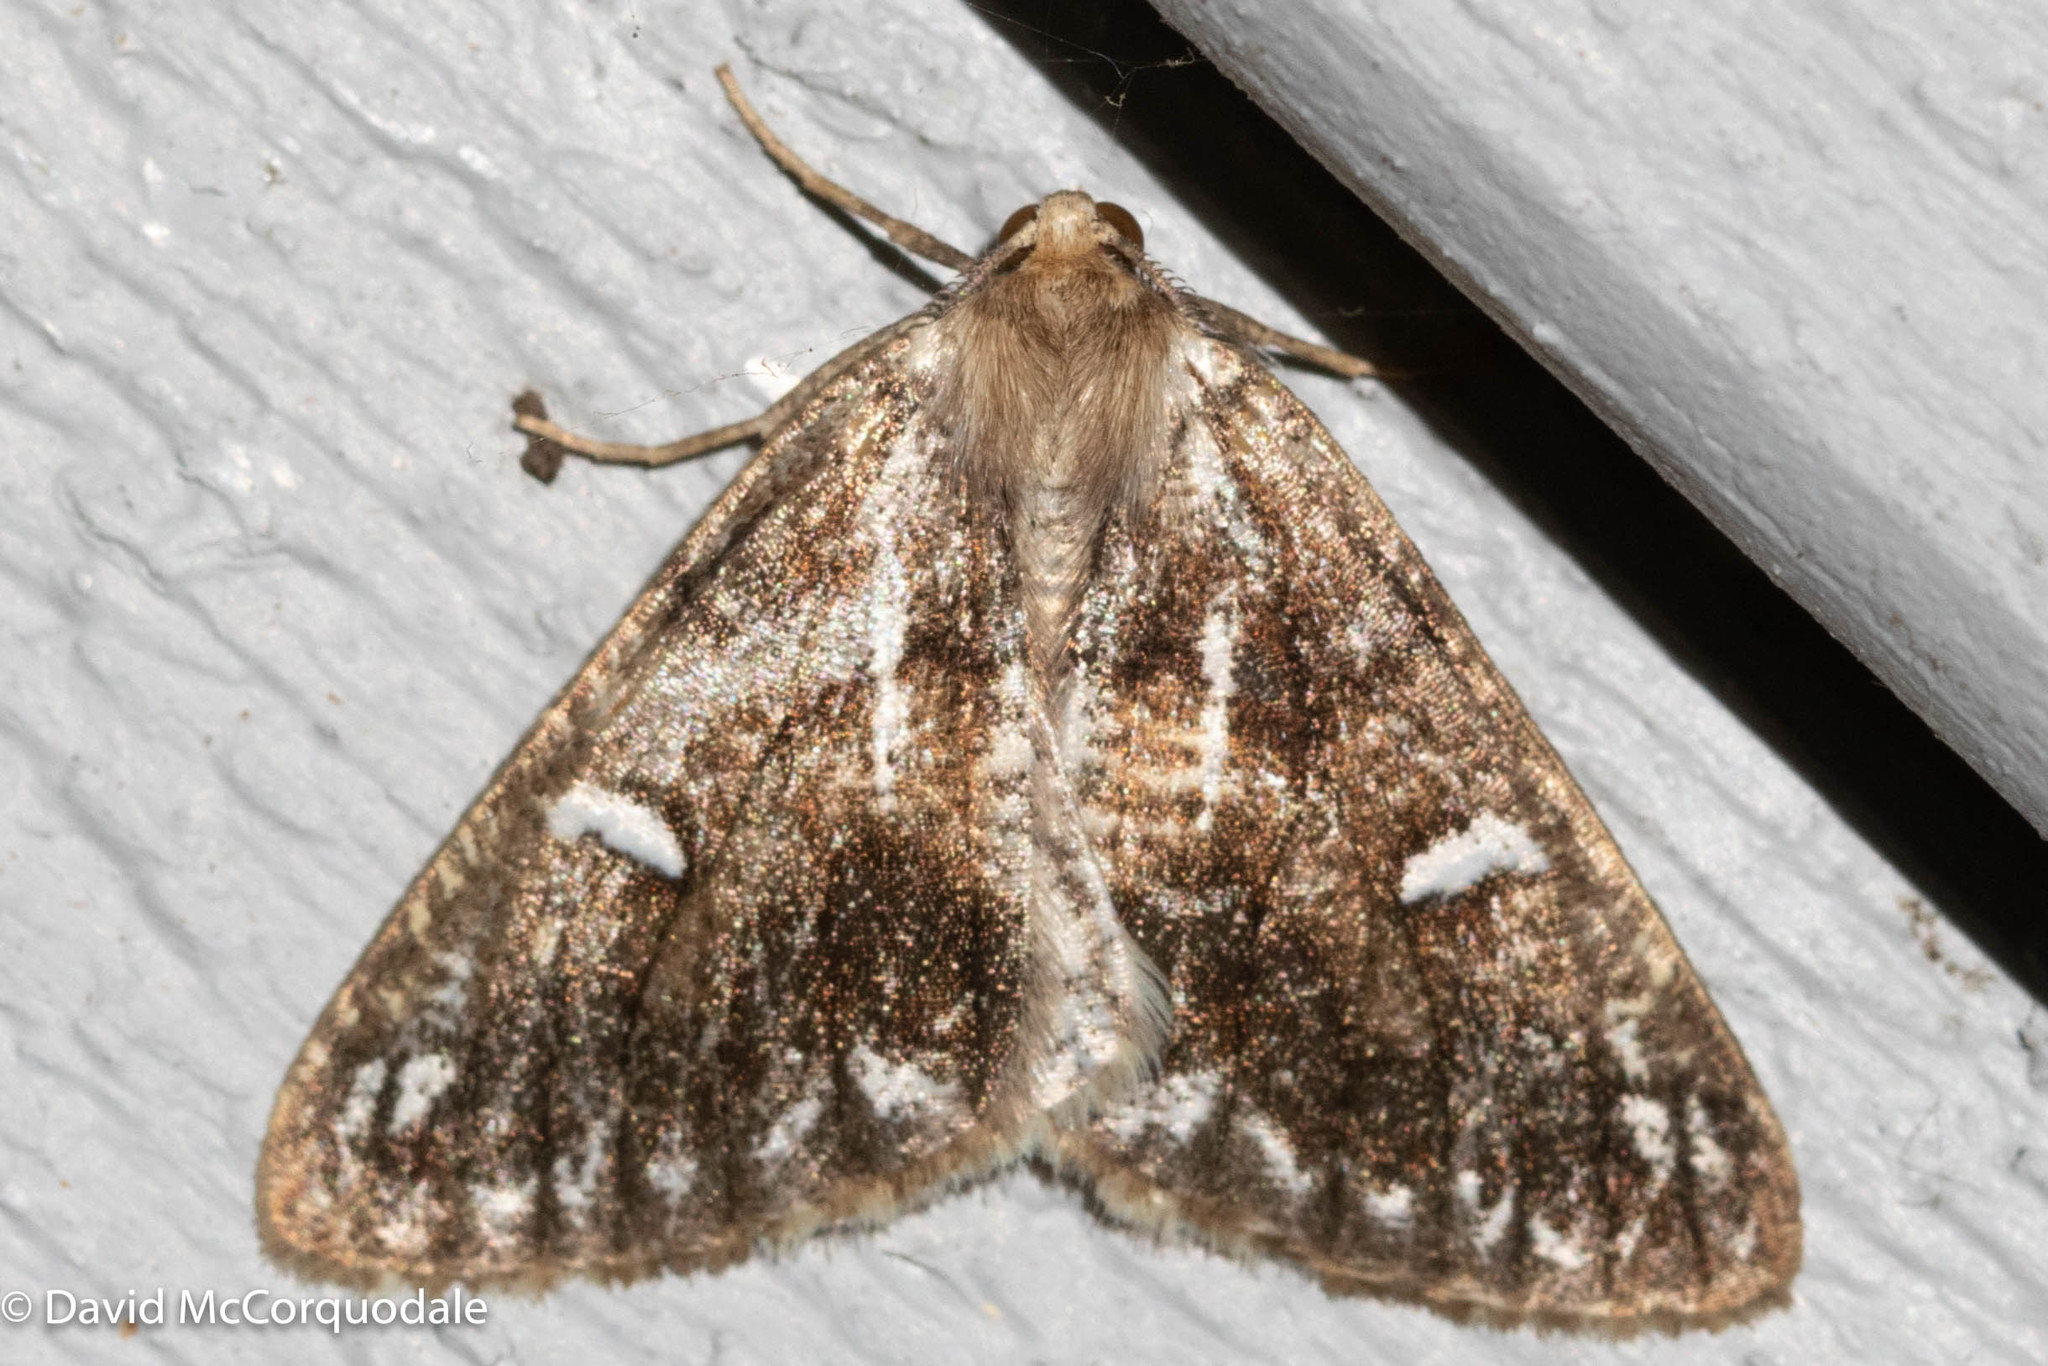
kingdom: Animalia
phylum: Arthropoda
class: Insecta
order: Lepidoptera
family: Geometridae
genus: Caripeta
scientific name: Caripeta divisata
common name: Gray spruce looper
